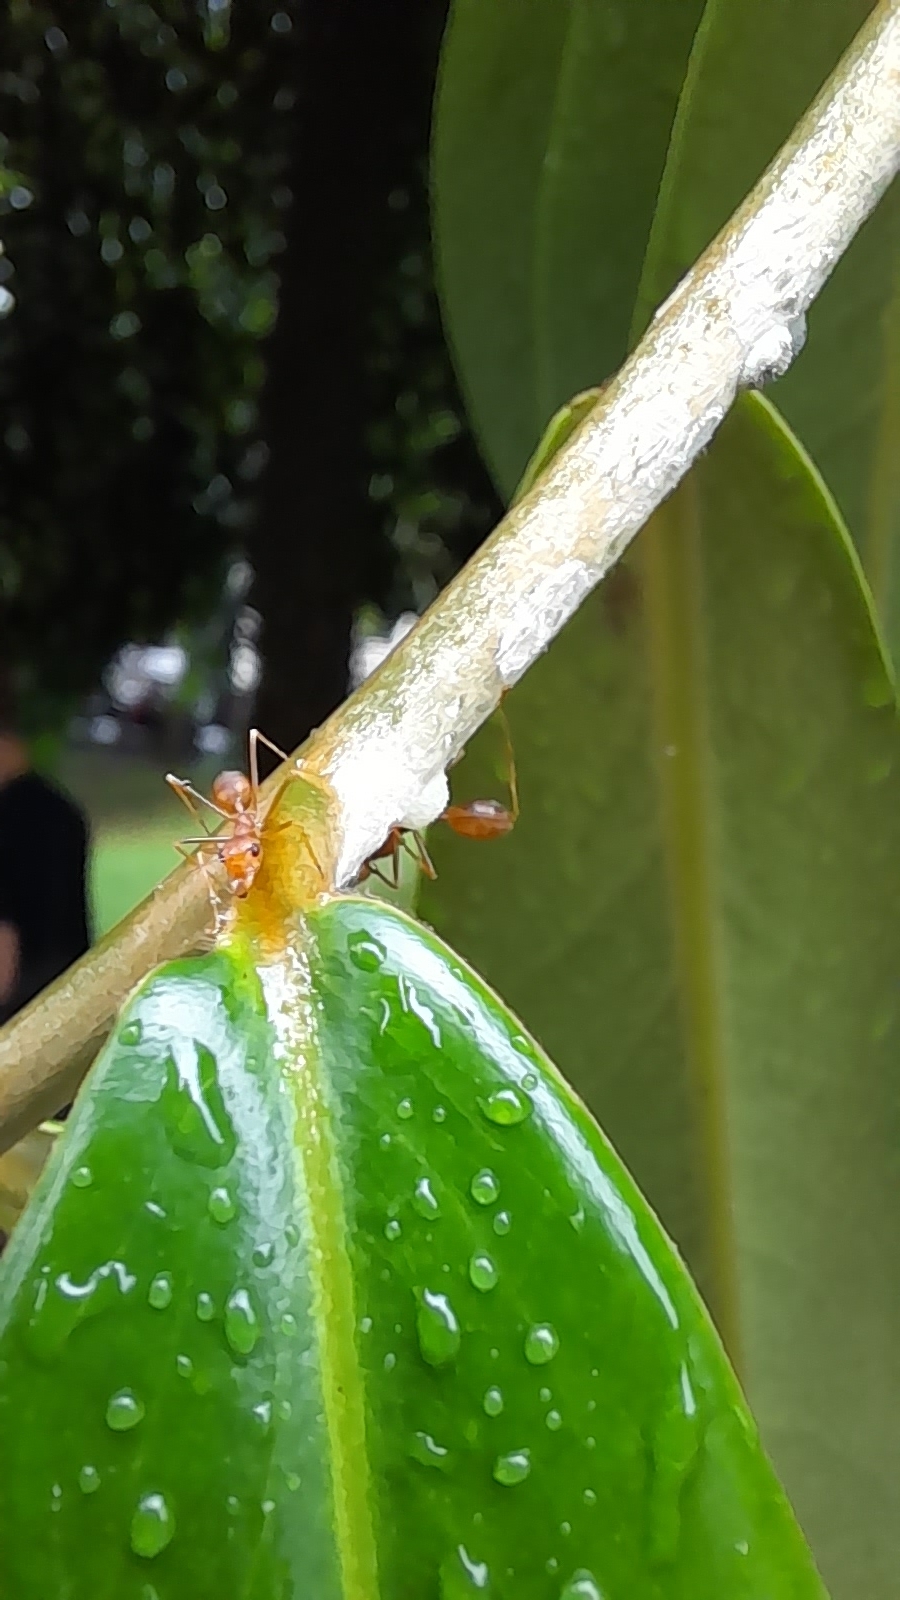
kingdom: Animalia
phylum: Arthropoda
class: Insecta
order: Hymenoptera
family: Formicidae
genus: Oecophylla
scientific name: Oecophylla smaragdina
